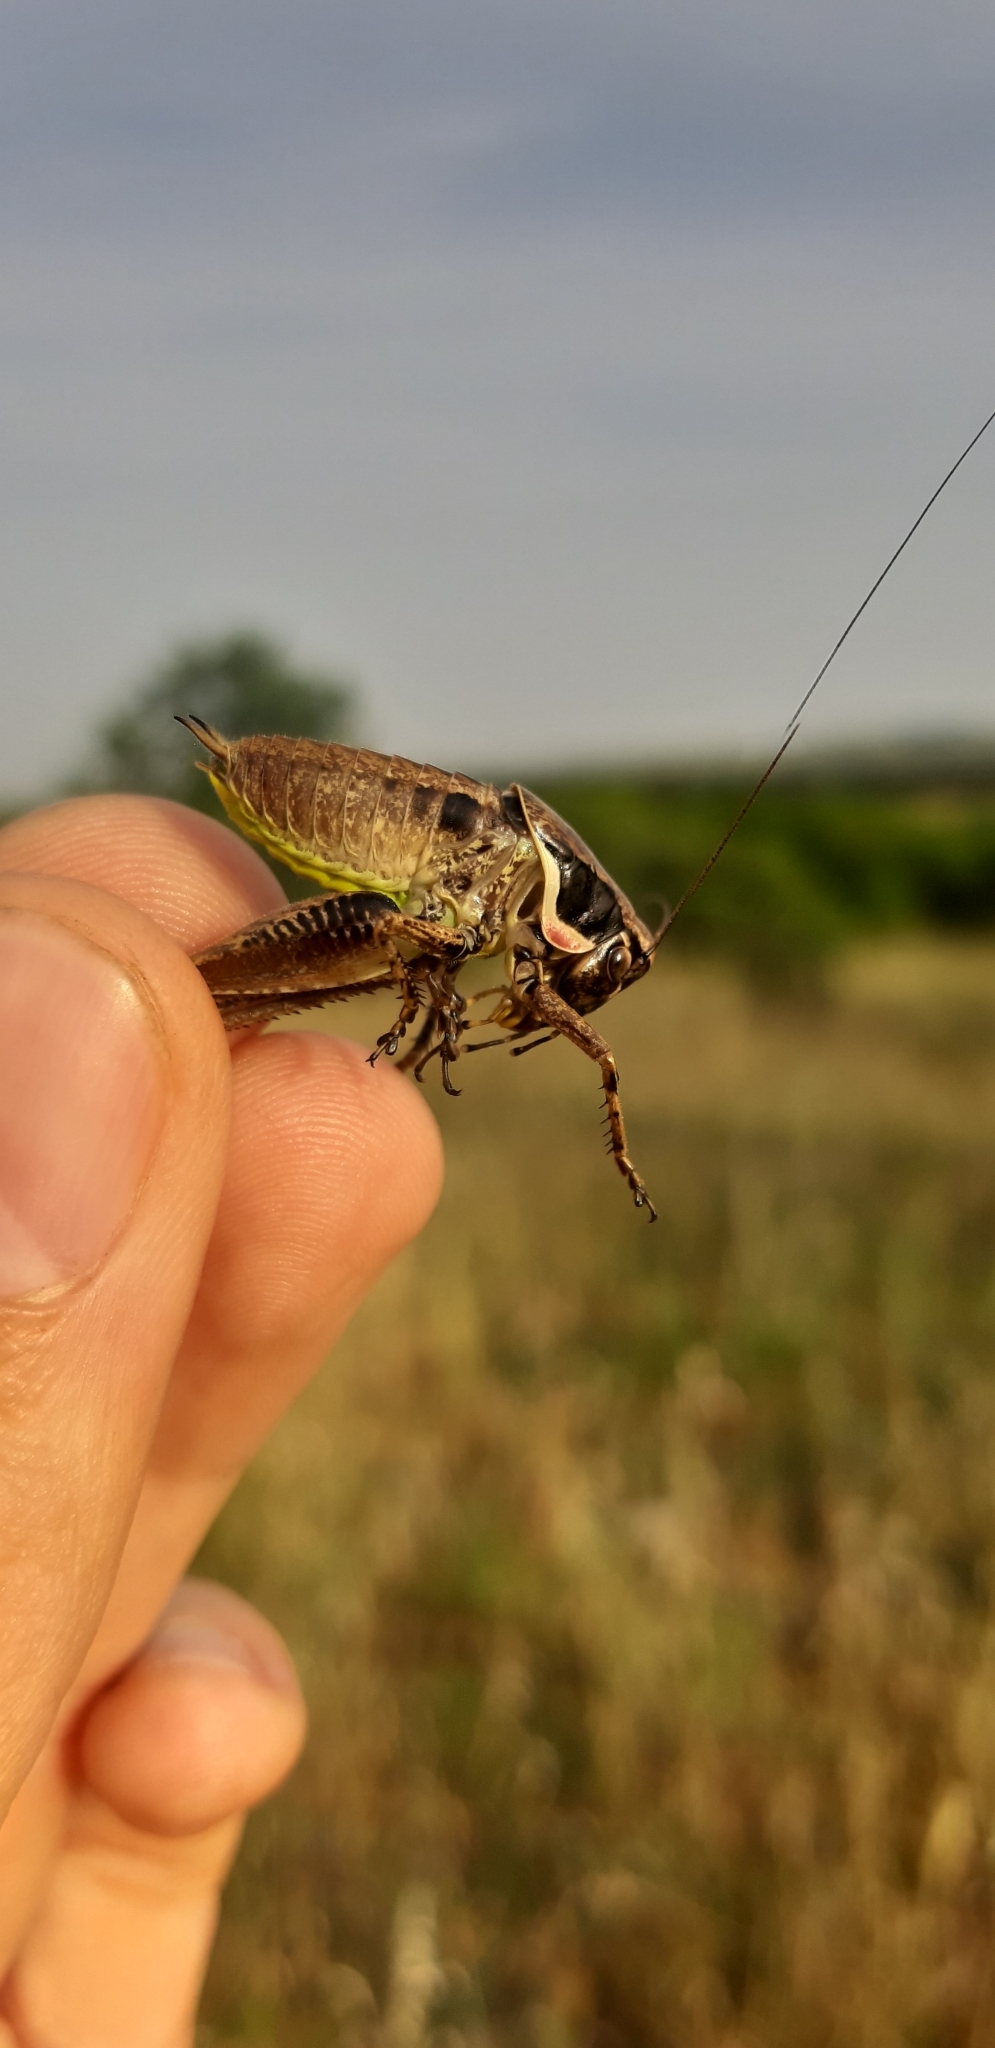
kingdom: Animalia
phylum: Arthropoda
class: Insecta
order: Orthoptera
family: Tettigoniidae
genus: Pholidoptera
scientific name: Pholidoptera femorata
